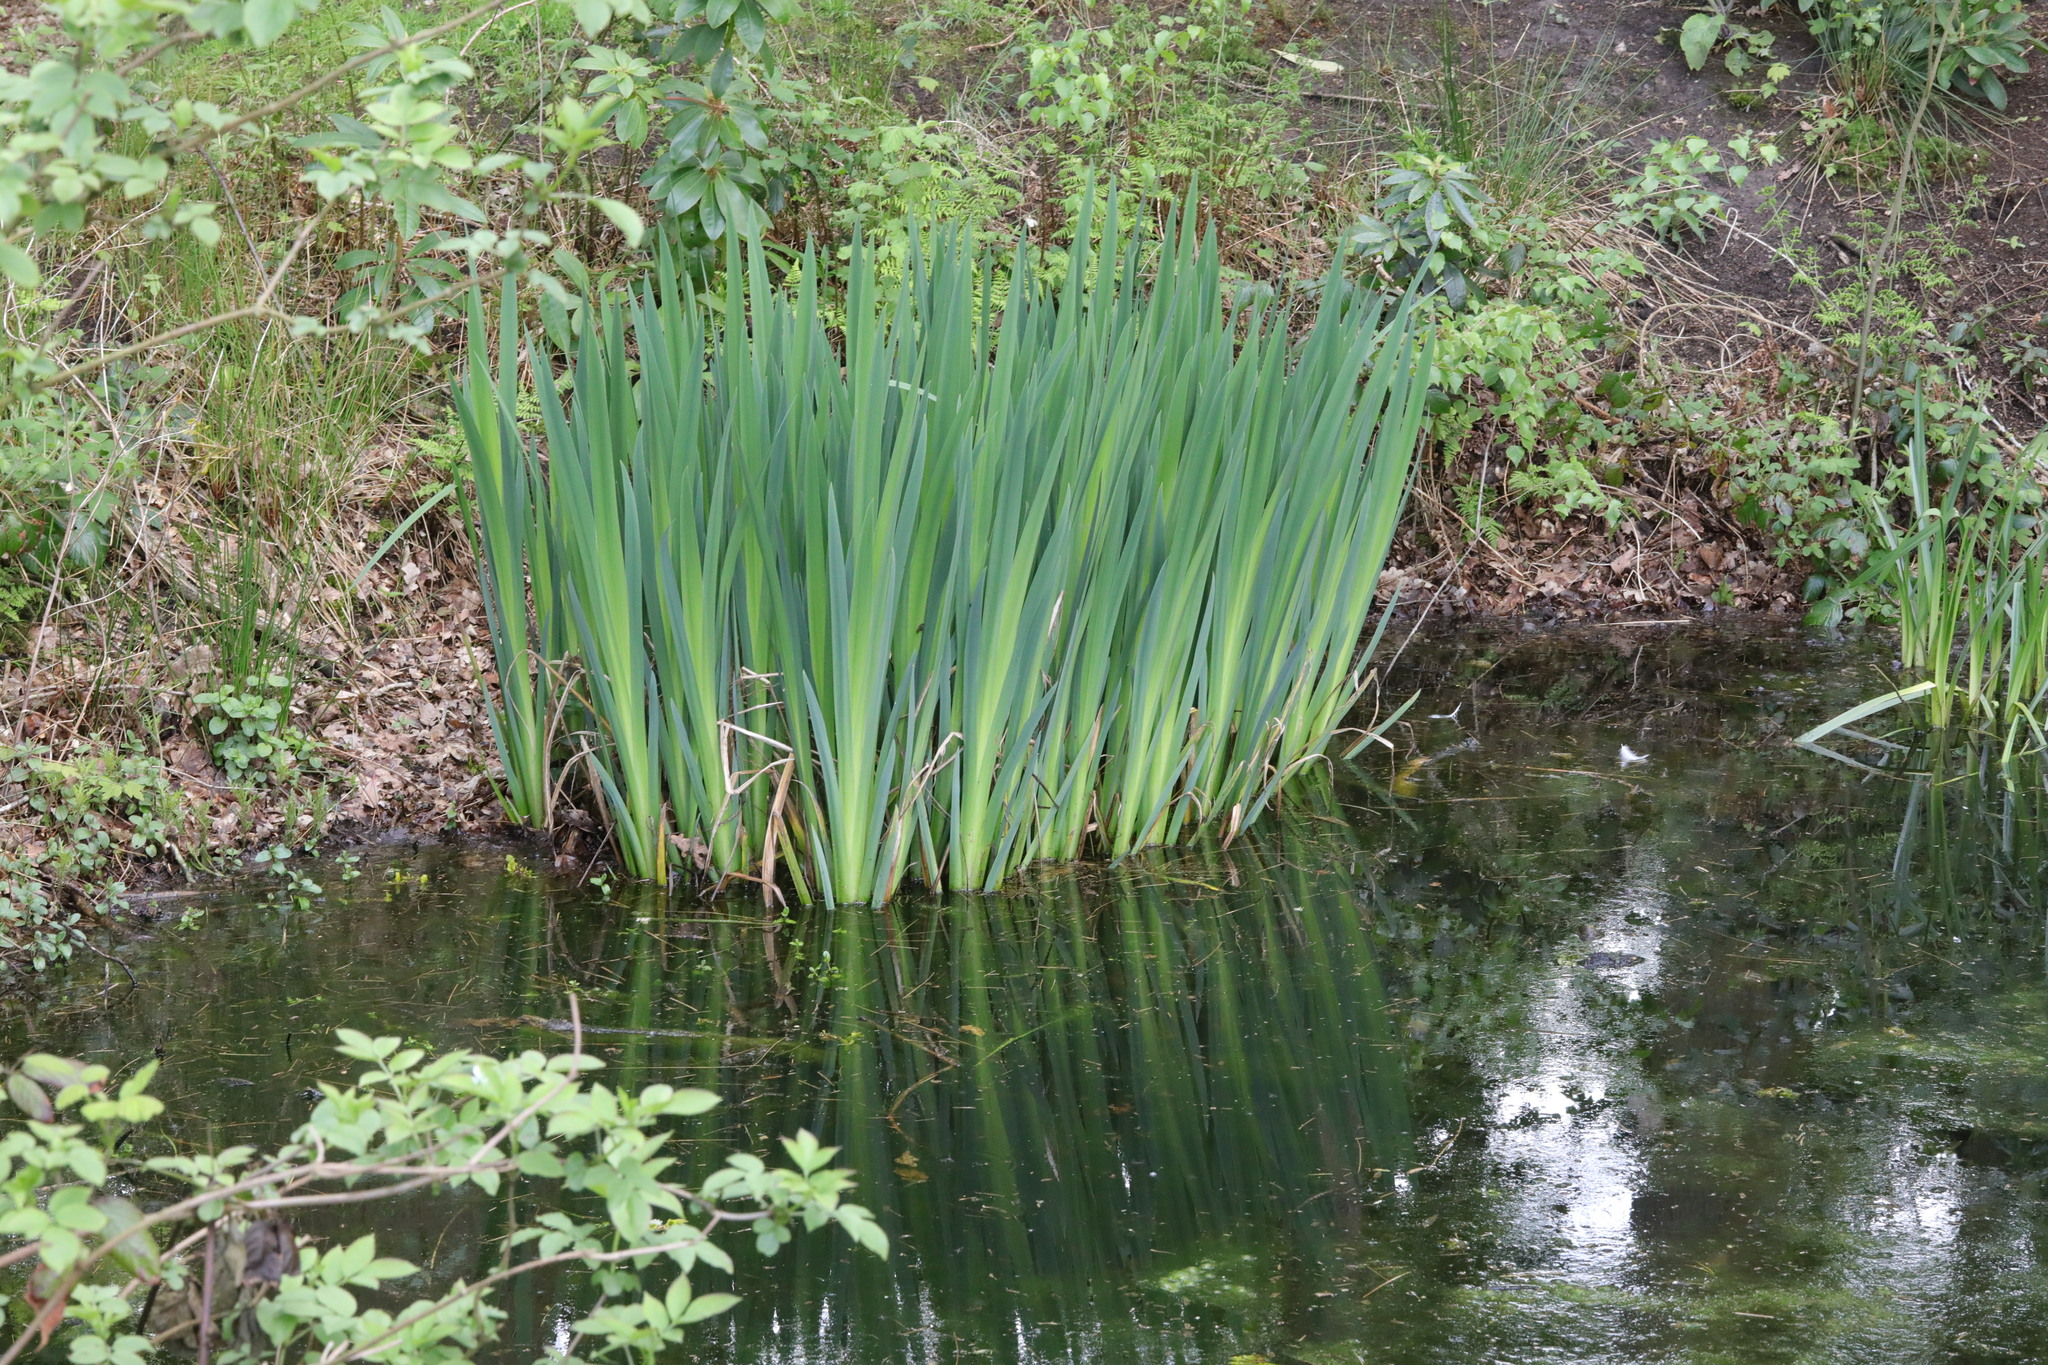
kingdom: Plantae
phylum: Tracheophyta
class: Liliopsida
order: Asparagales
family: Iridaceae
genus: Iris
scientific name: Iris pseudacorus
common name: Yellow flag
